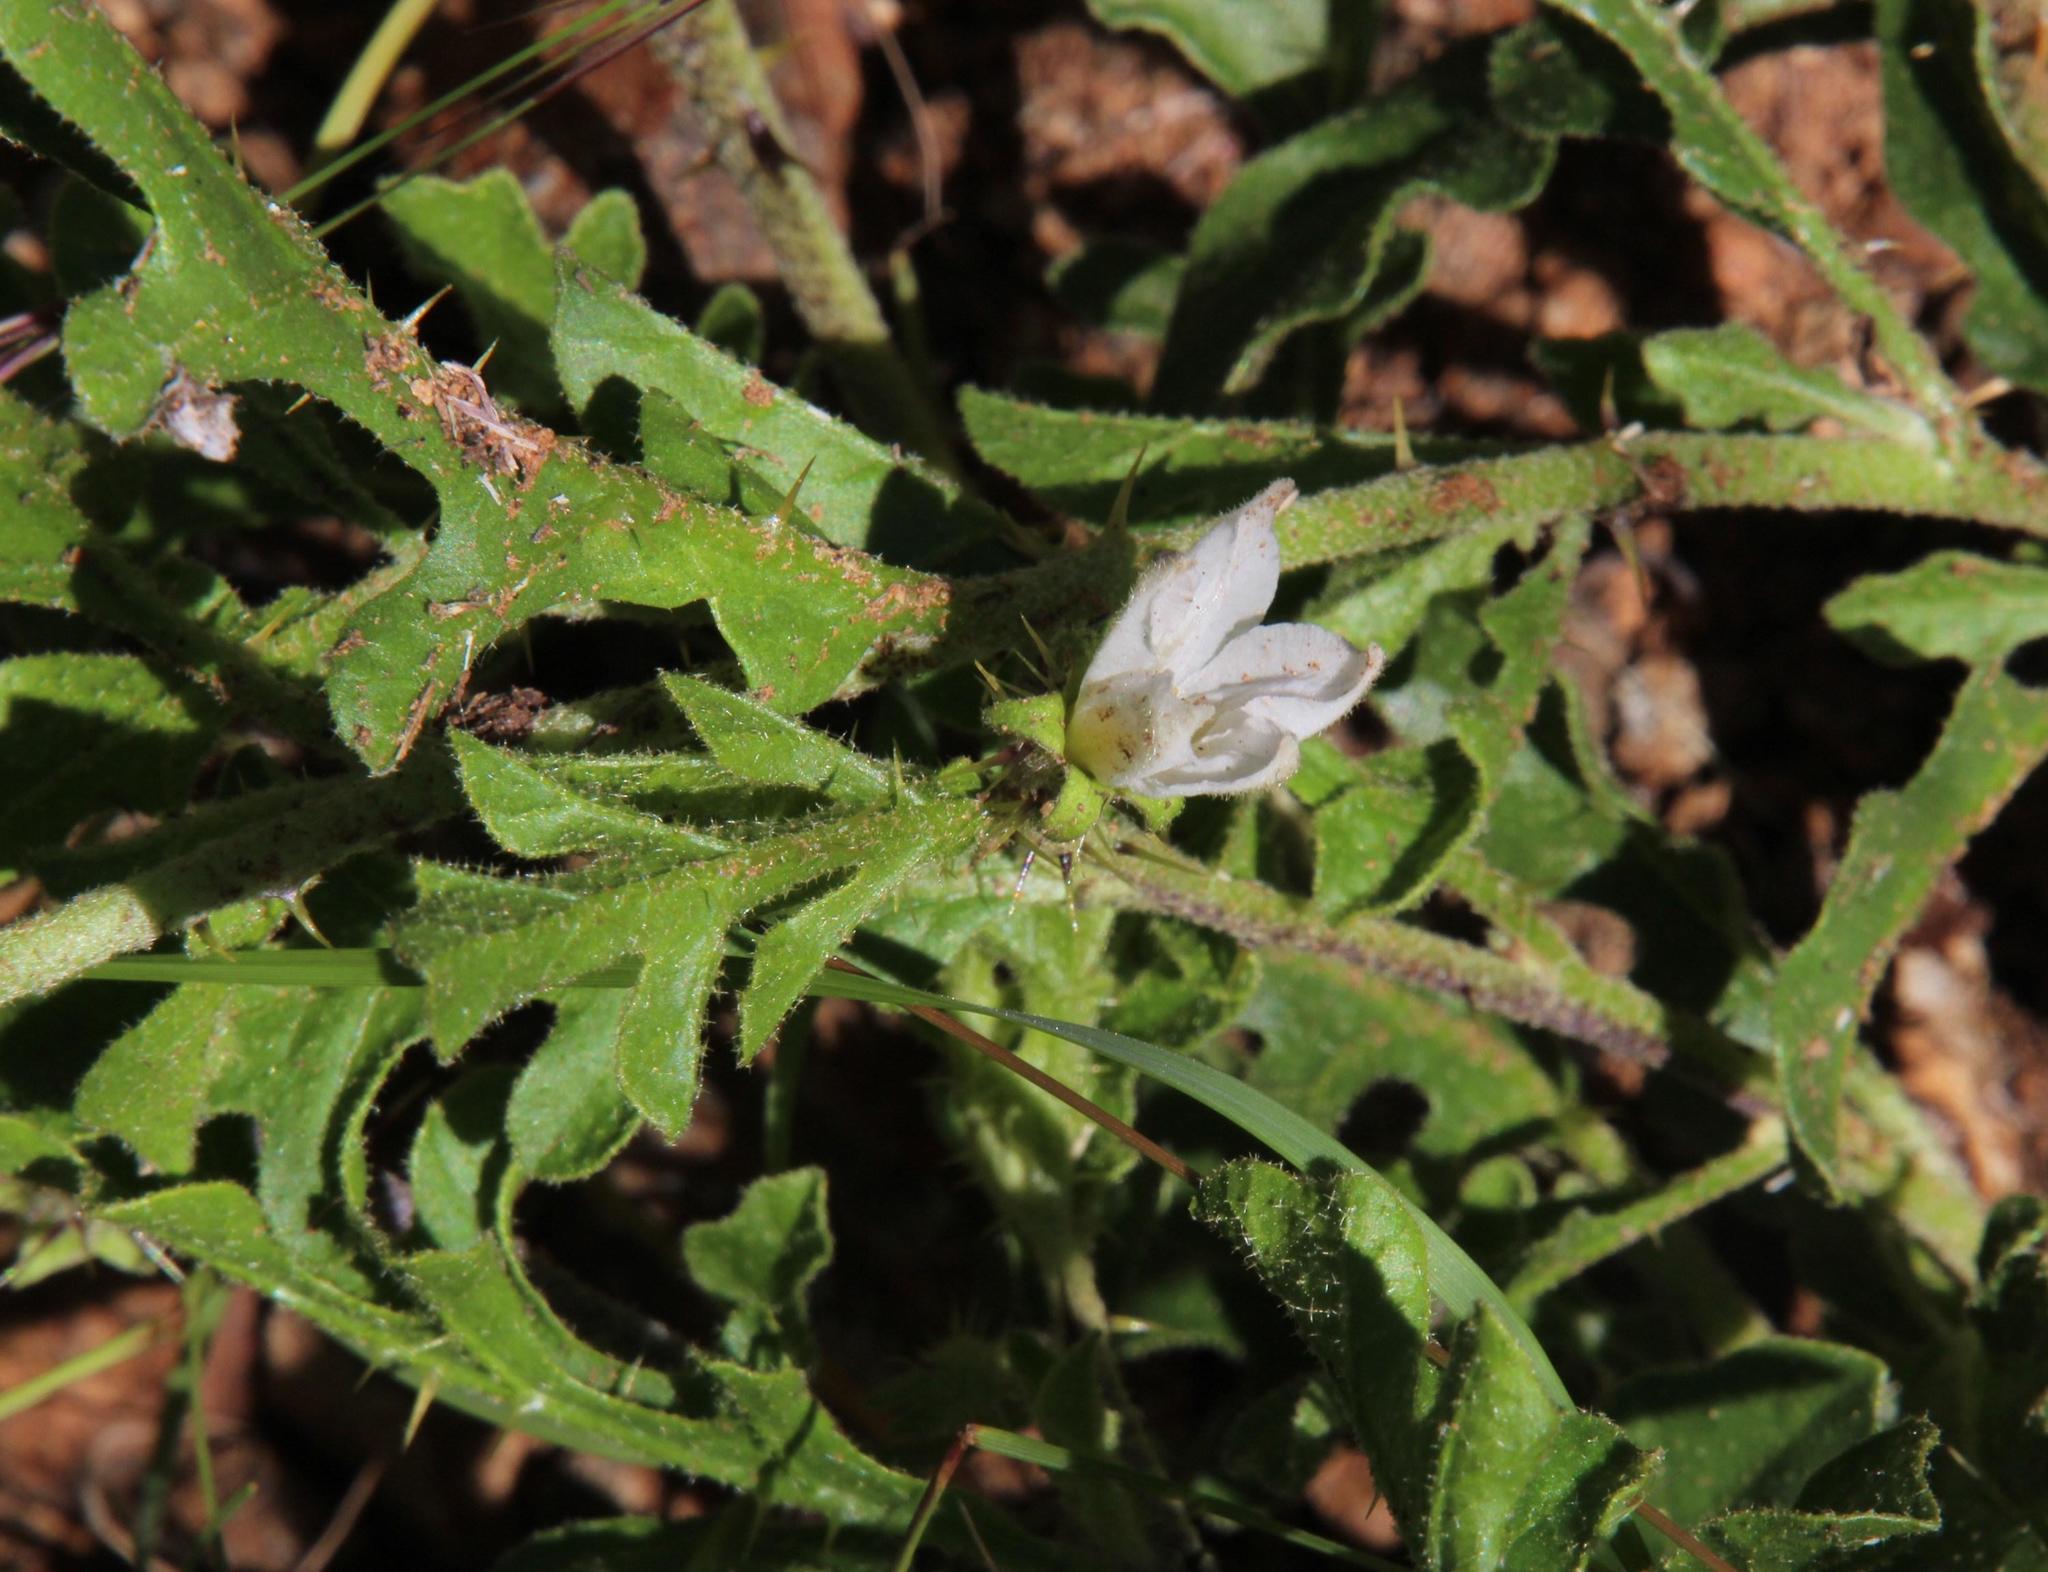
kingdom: Plantae
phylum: Tracheophyta
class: Magnoliopsida
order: Solanales
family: Solanaceae
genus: Solanum
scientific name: Solanum supinum
